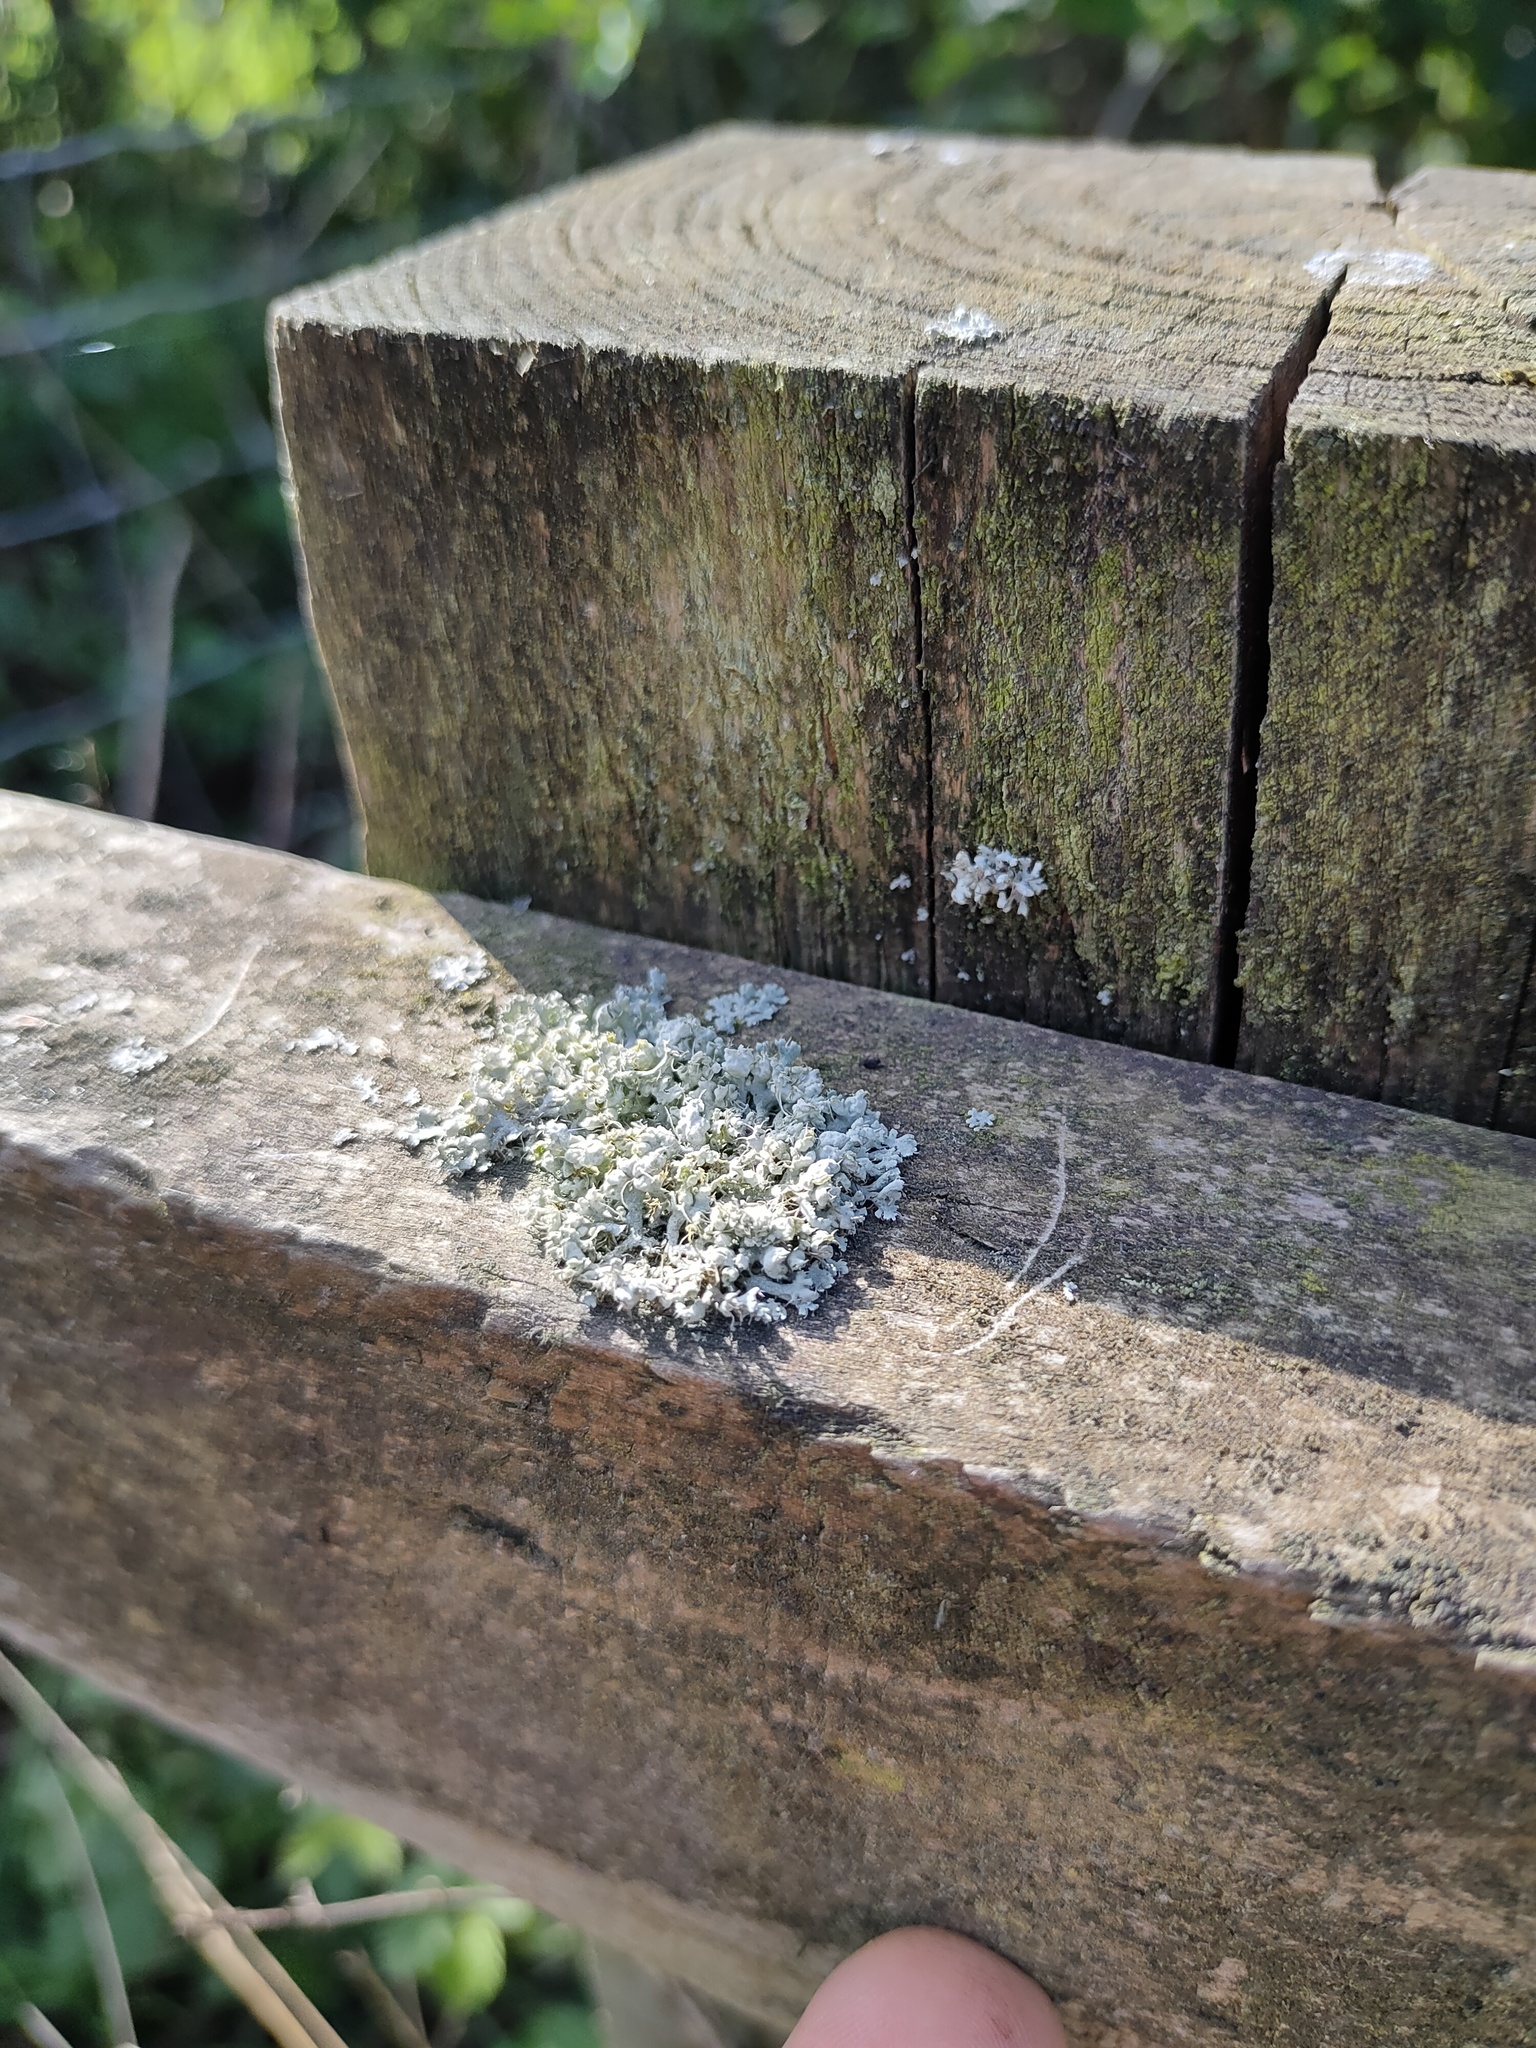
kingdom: Fungi
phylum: Ascomycota
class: Lecanoromycetes
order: Caliciales
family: Physciaceae
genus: Physcia
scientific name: Physcia adscendens
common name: Hooded rosette lichen
